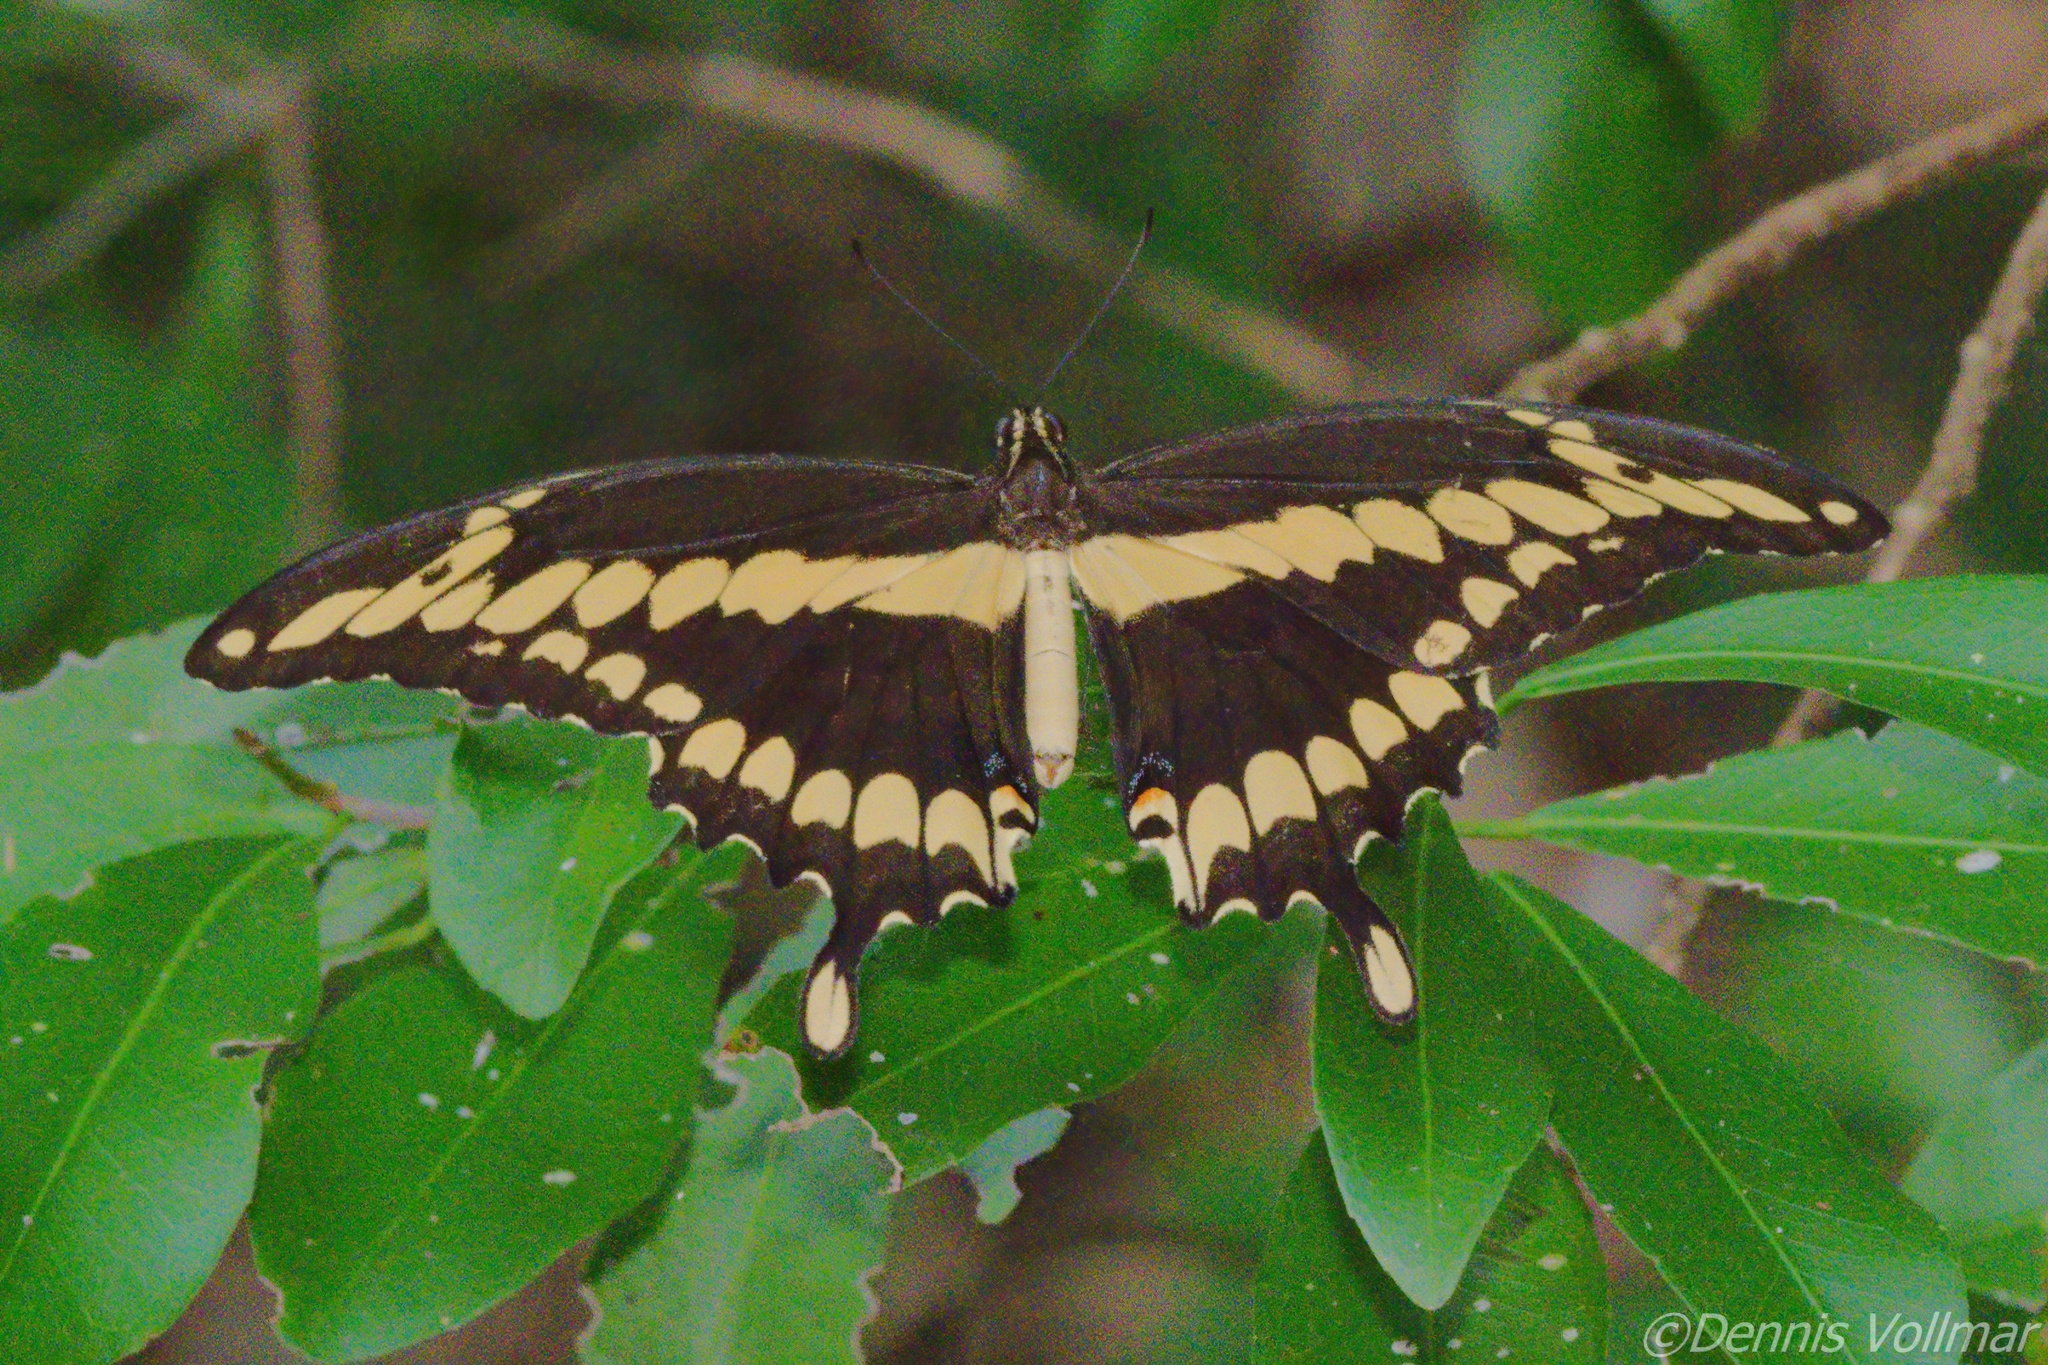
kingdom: Animalia
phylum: Arthropoda
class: Insecta
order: Lepidoptera
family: Papilionidae
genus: Papilio
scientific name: Papilio cresphontes
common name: Giant swallowtail
